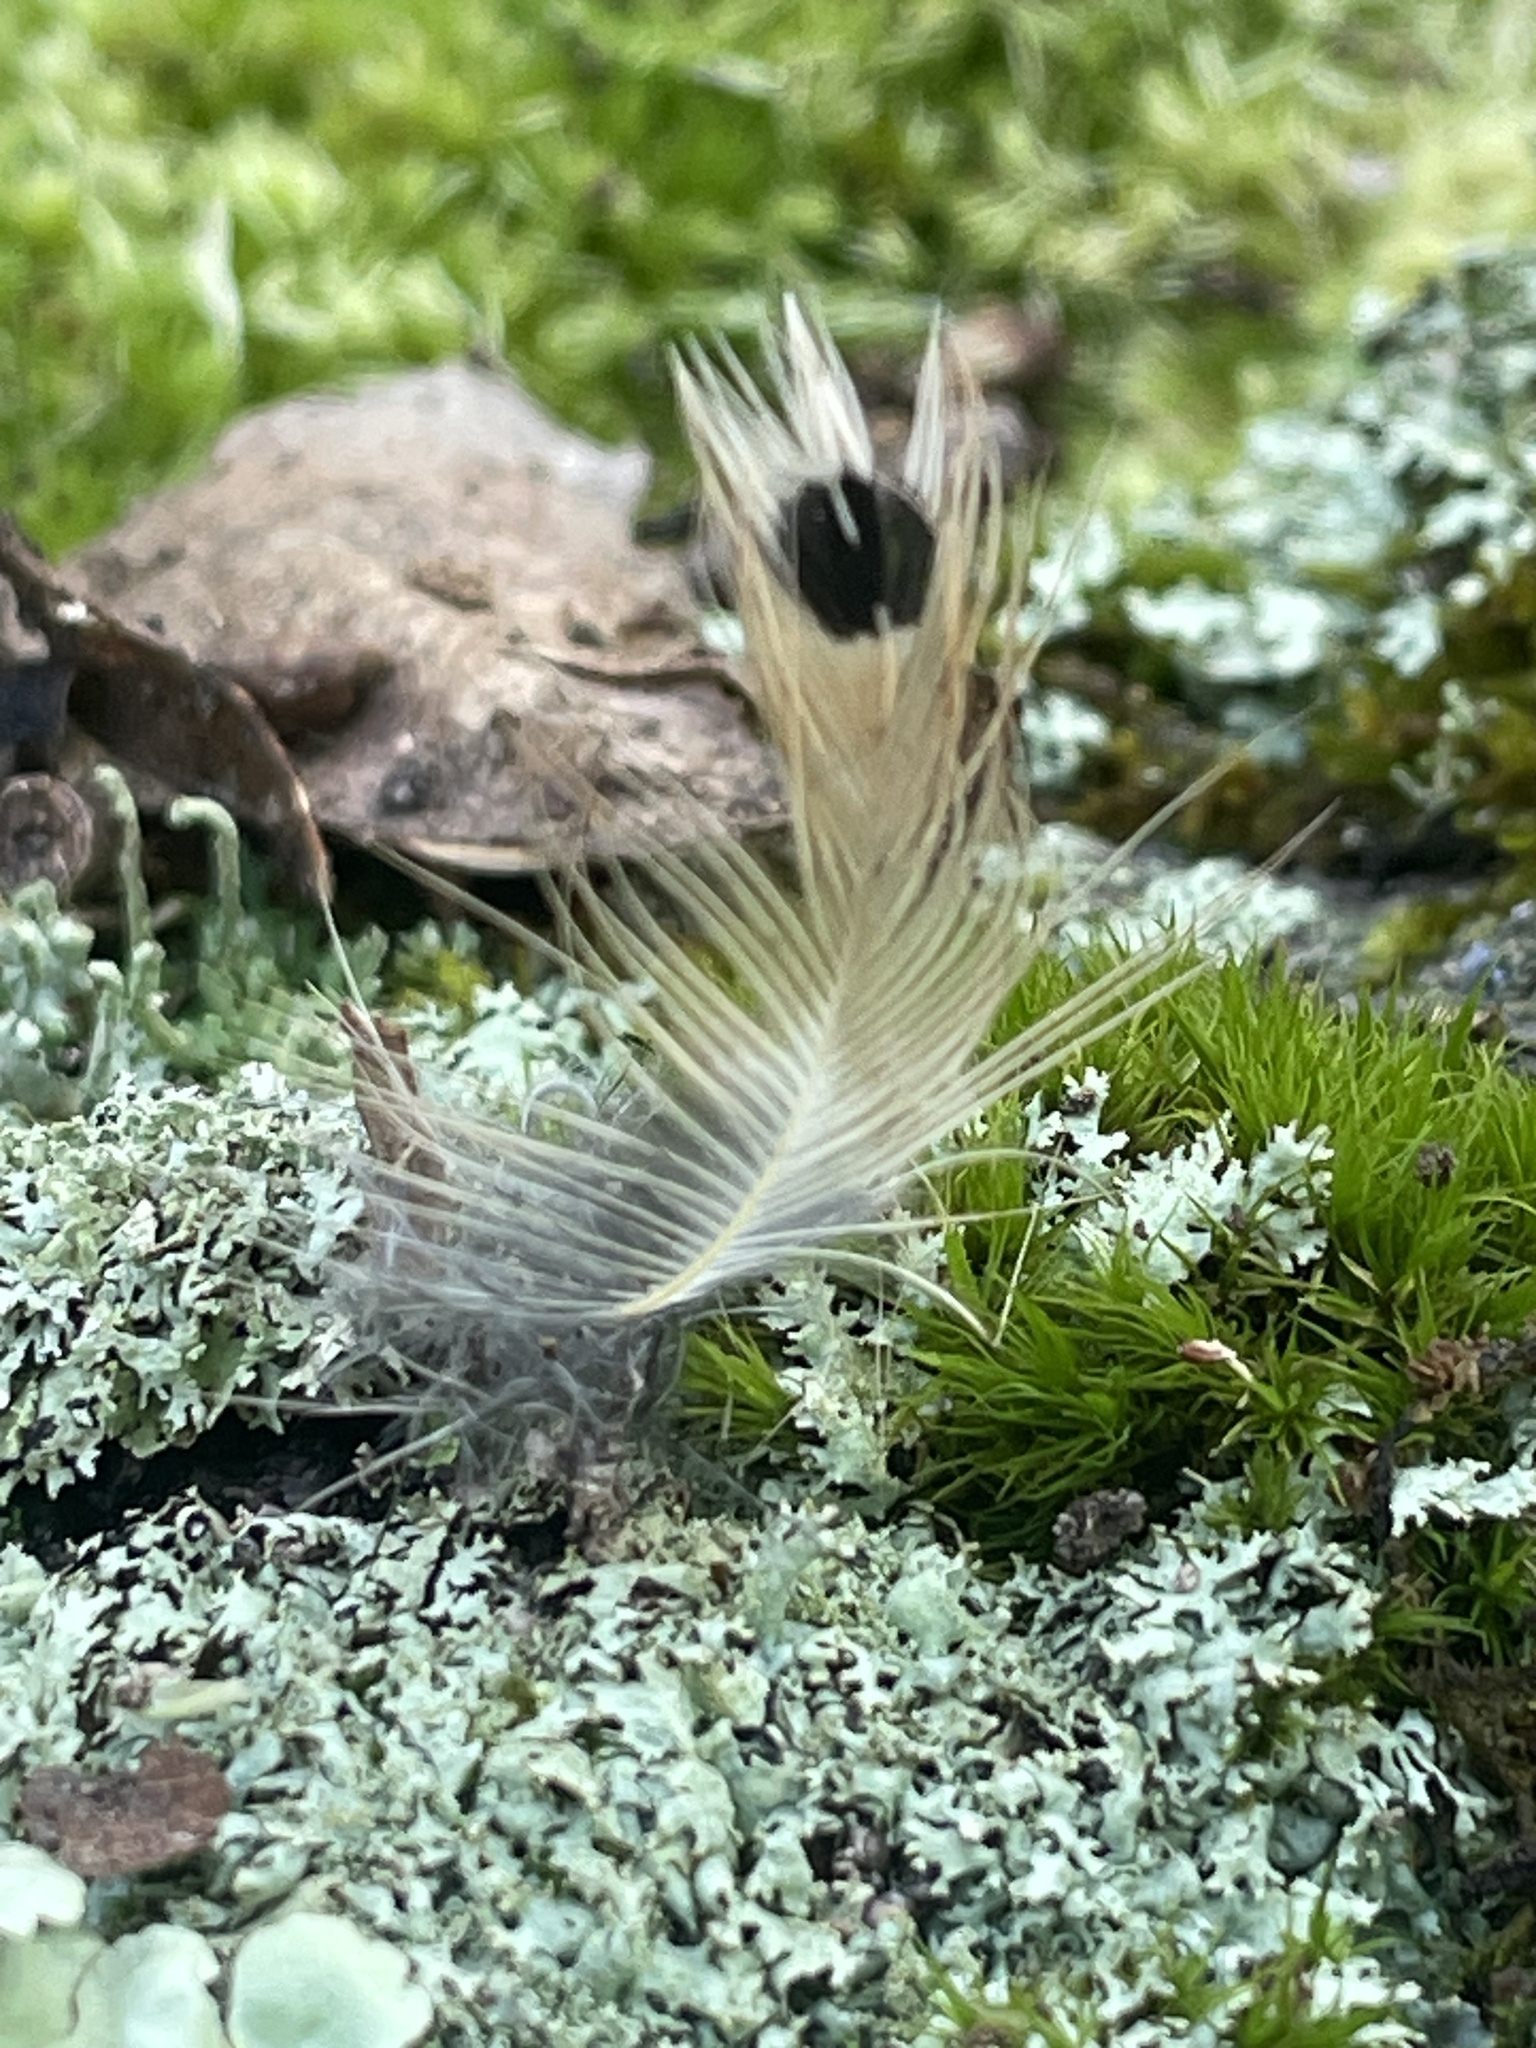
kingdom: Animalia
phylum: Chordata
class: Aves
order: Piciformes
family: Picidae
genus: Colaptes
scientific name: Colaptes auratus
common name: Northern flicker
